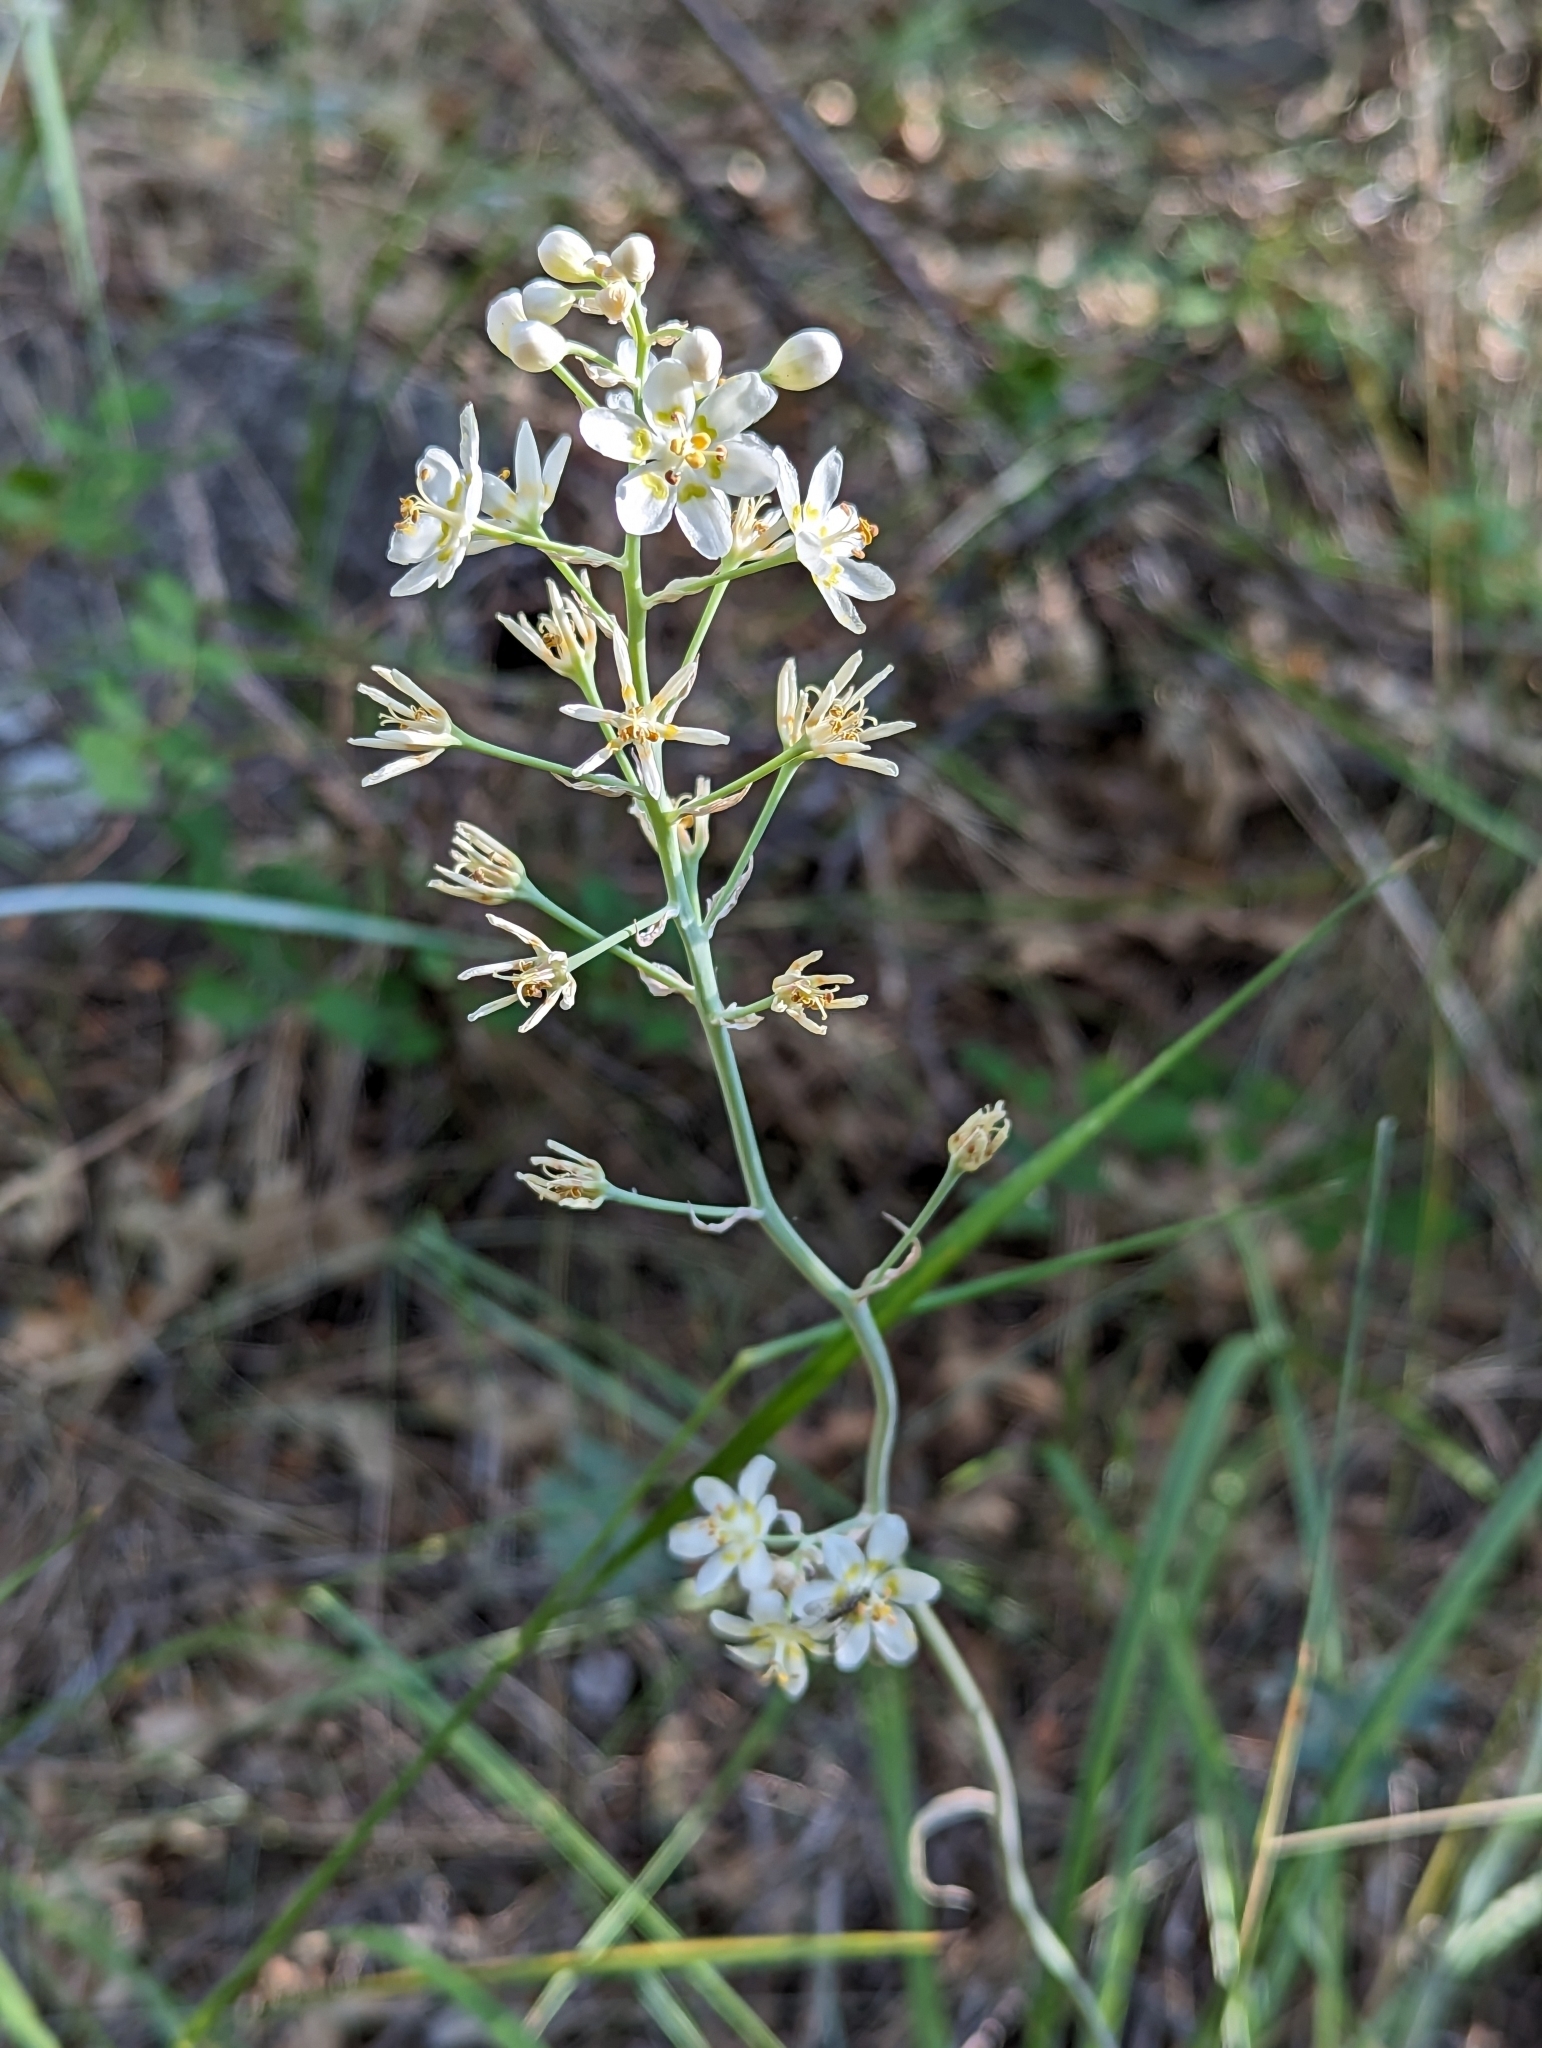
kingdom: Plantae
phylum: Tracheophyta
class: Liliopsida
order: Liliales
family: Melanthiaceae
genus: Anticlea
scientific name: Anticlea elegans
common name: Mountain death camas
